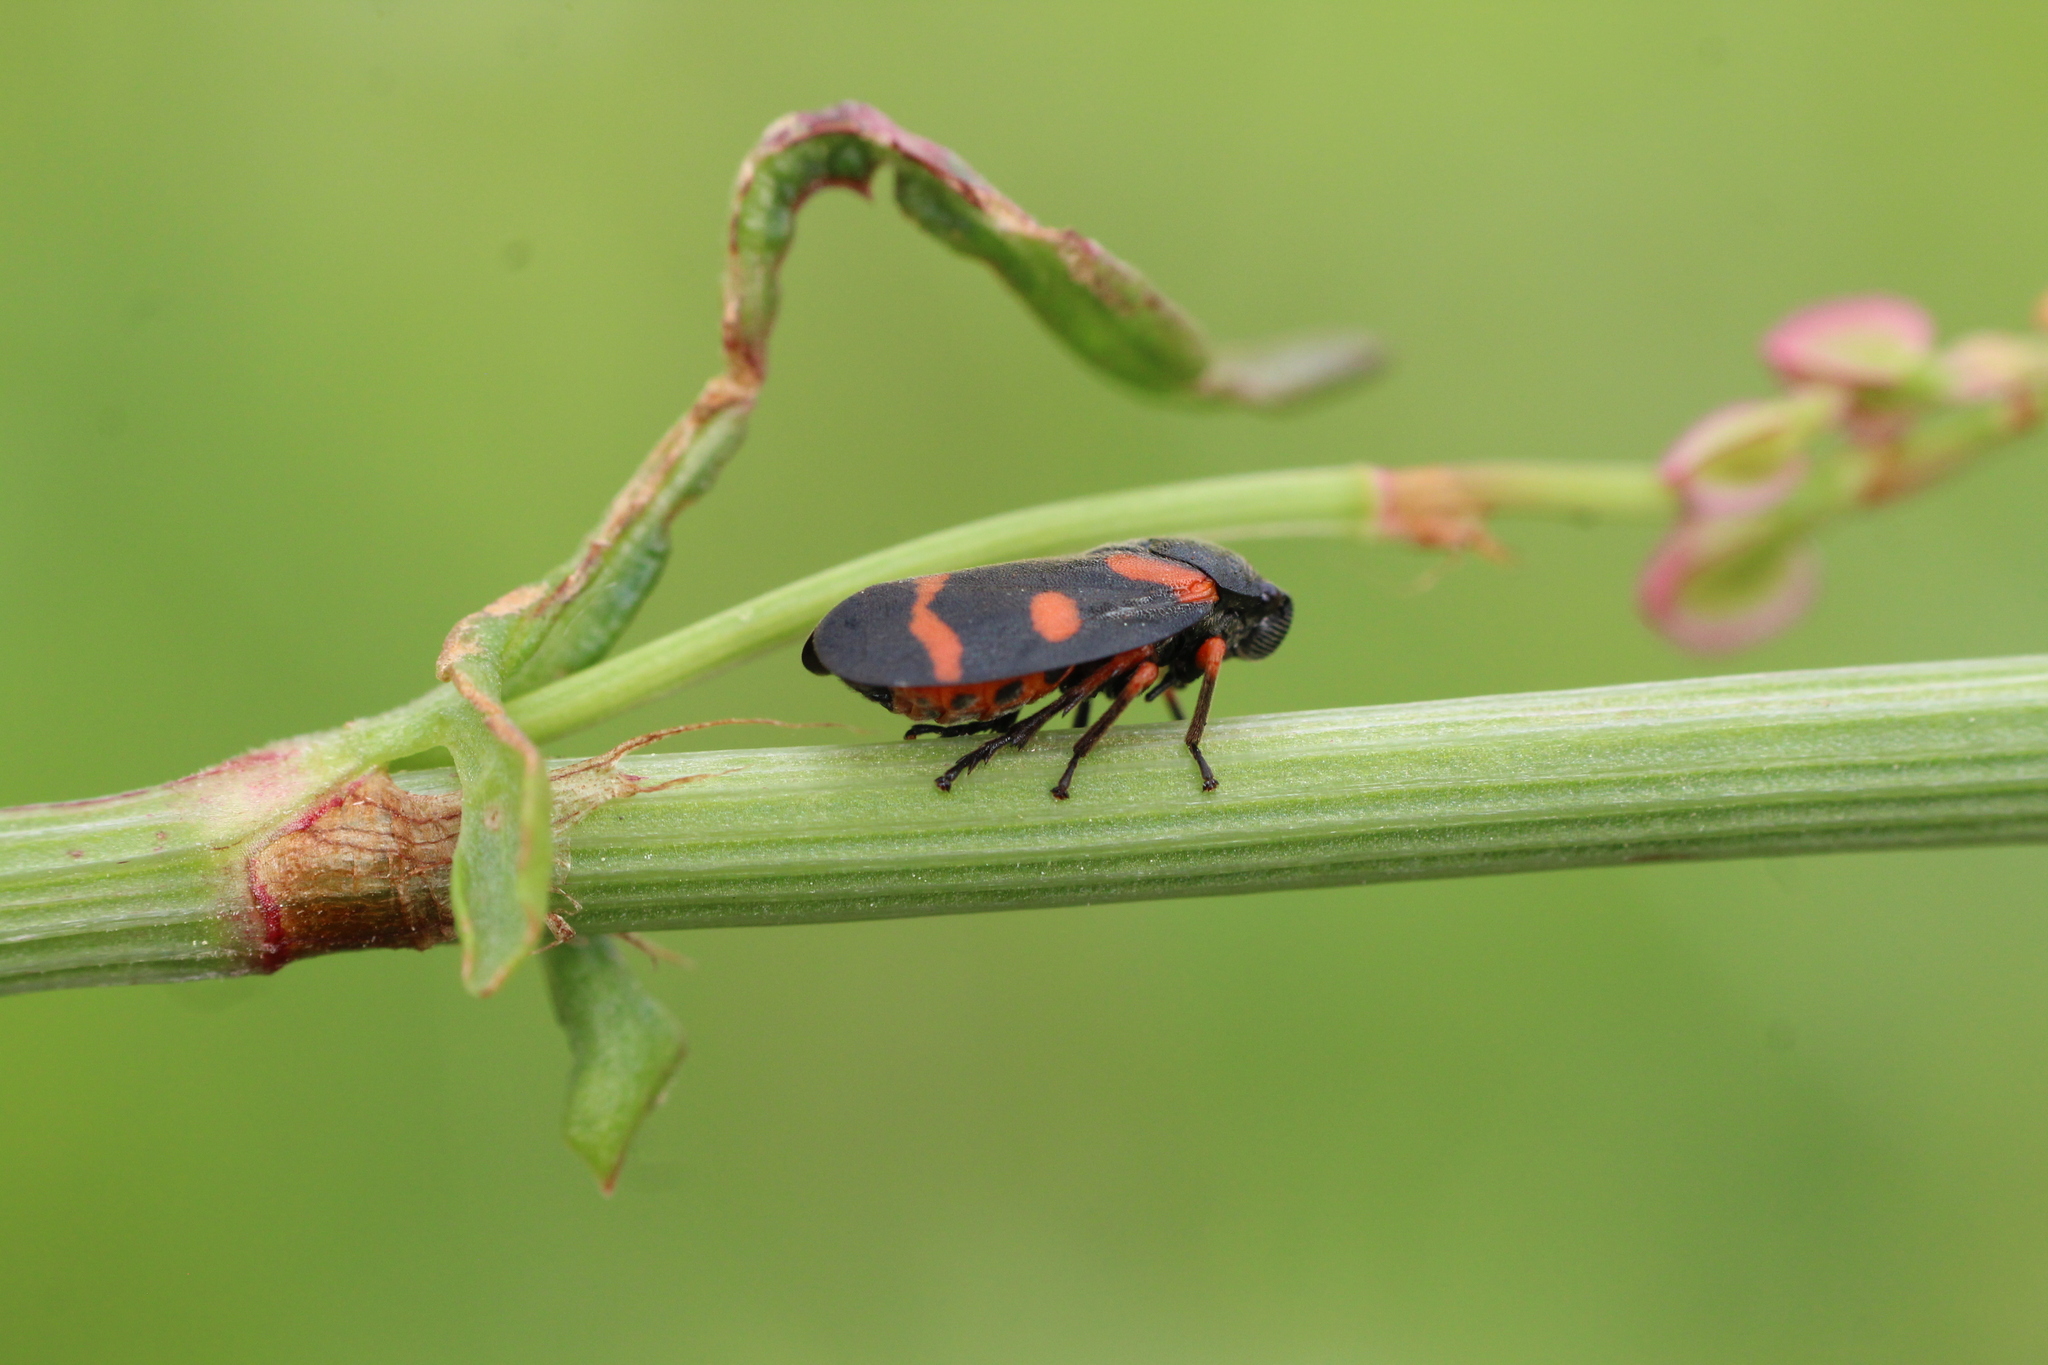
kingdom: Animalia
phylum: Arthropoda
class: Insecta
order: Hemiptera
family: Cercopidae
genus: Cercopis
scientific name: Cercopis intermedia
